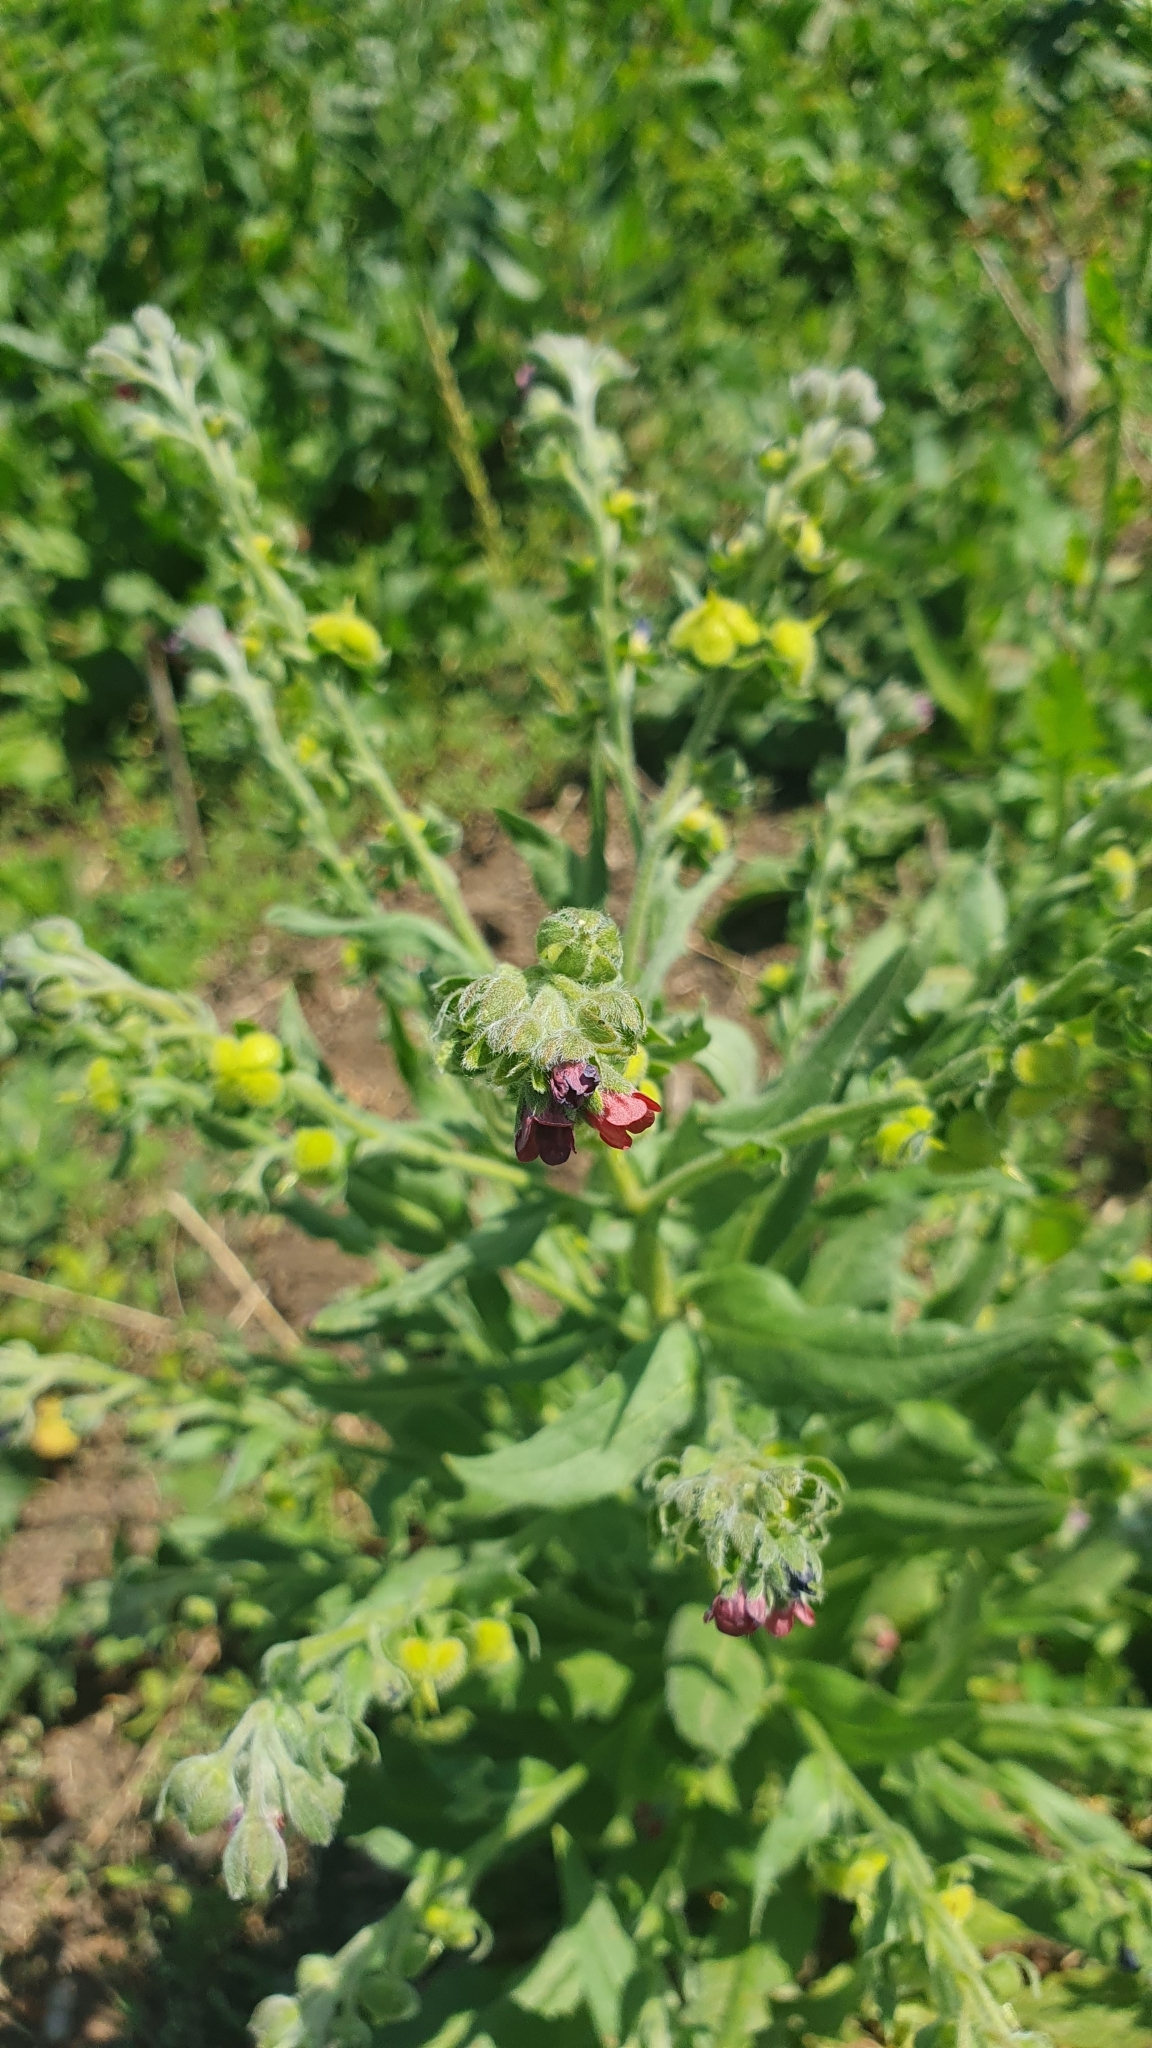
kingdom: Plantae
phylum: Tracheophyta
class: Magnoliopsida
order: Boraginales
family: Boraginaceae
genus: Cynoglossum
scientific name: Cynoglossum officinale
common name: Hound's-tongue
